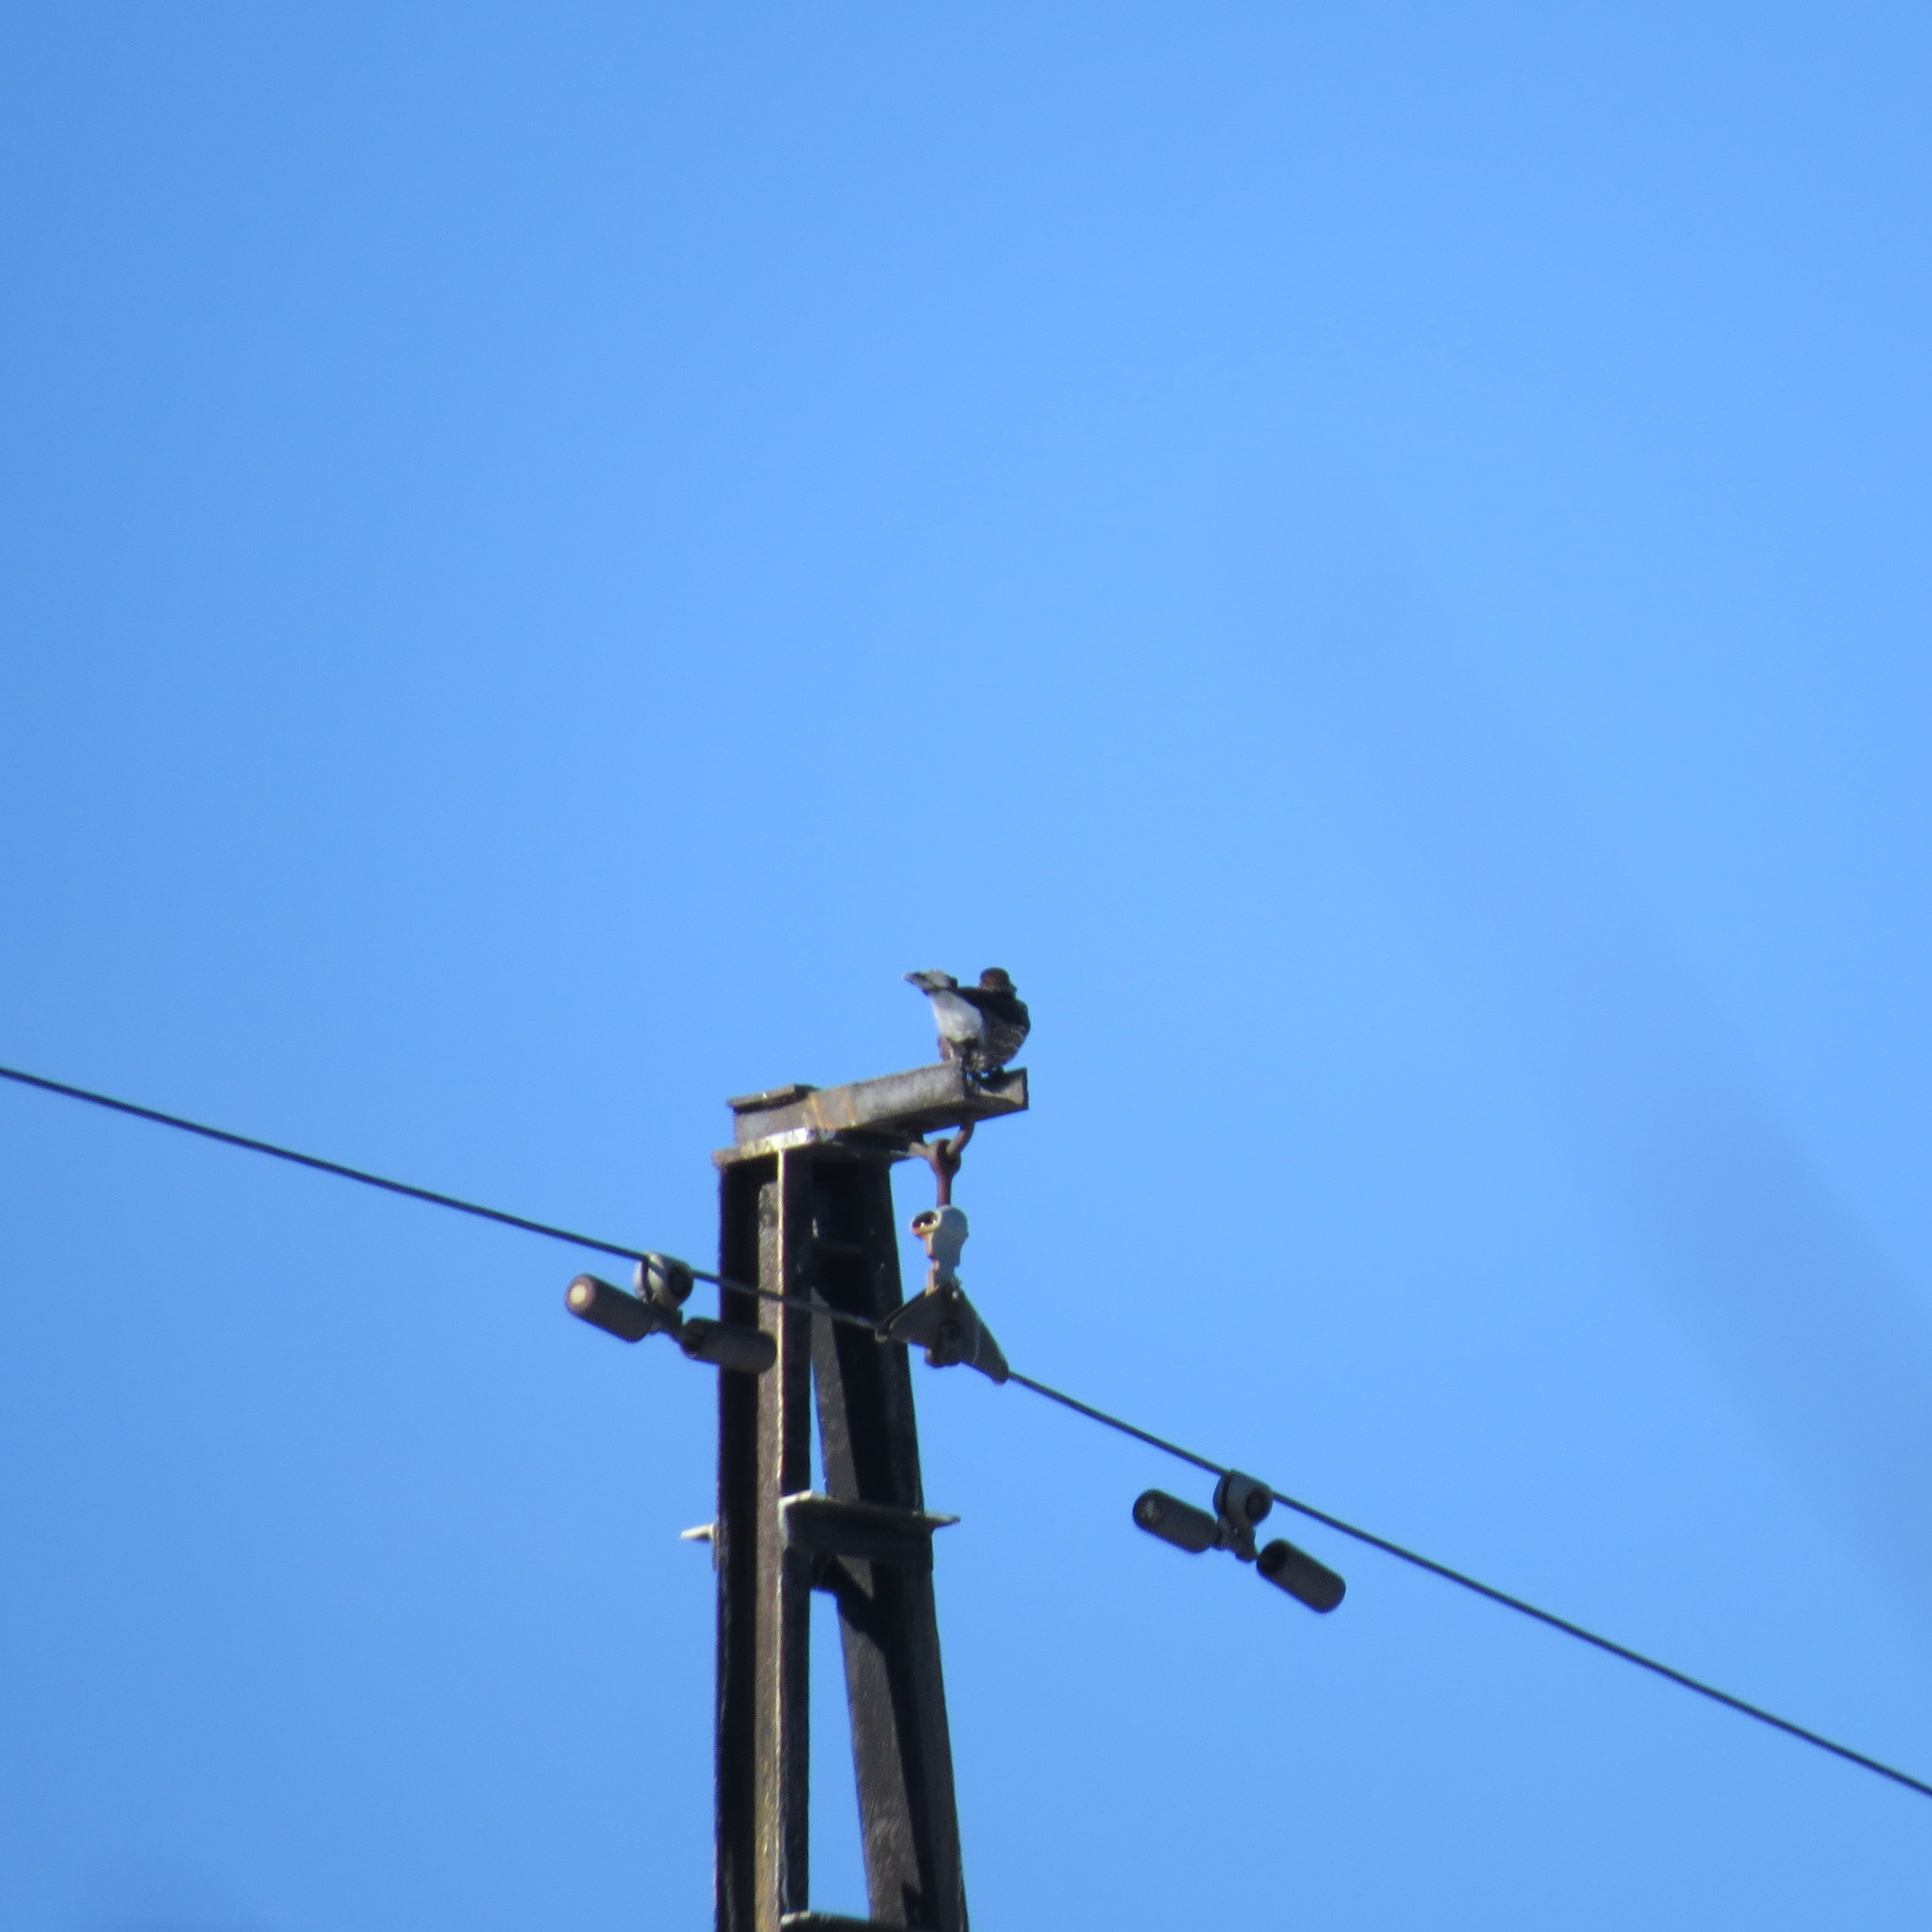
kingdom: Animalia
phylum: Chordata
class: Aves
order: Passeriformes
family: Corvidae
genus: Nucifraga
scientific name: Nucifraga caryocatactes
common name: Spotted nutcracker
